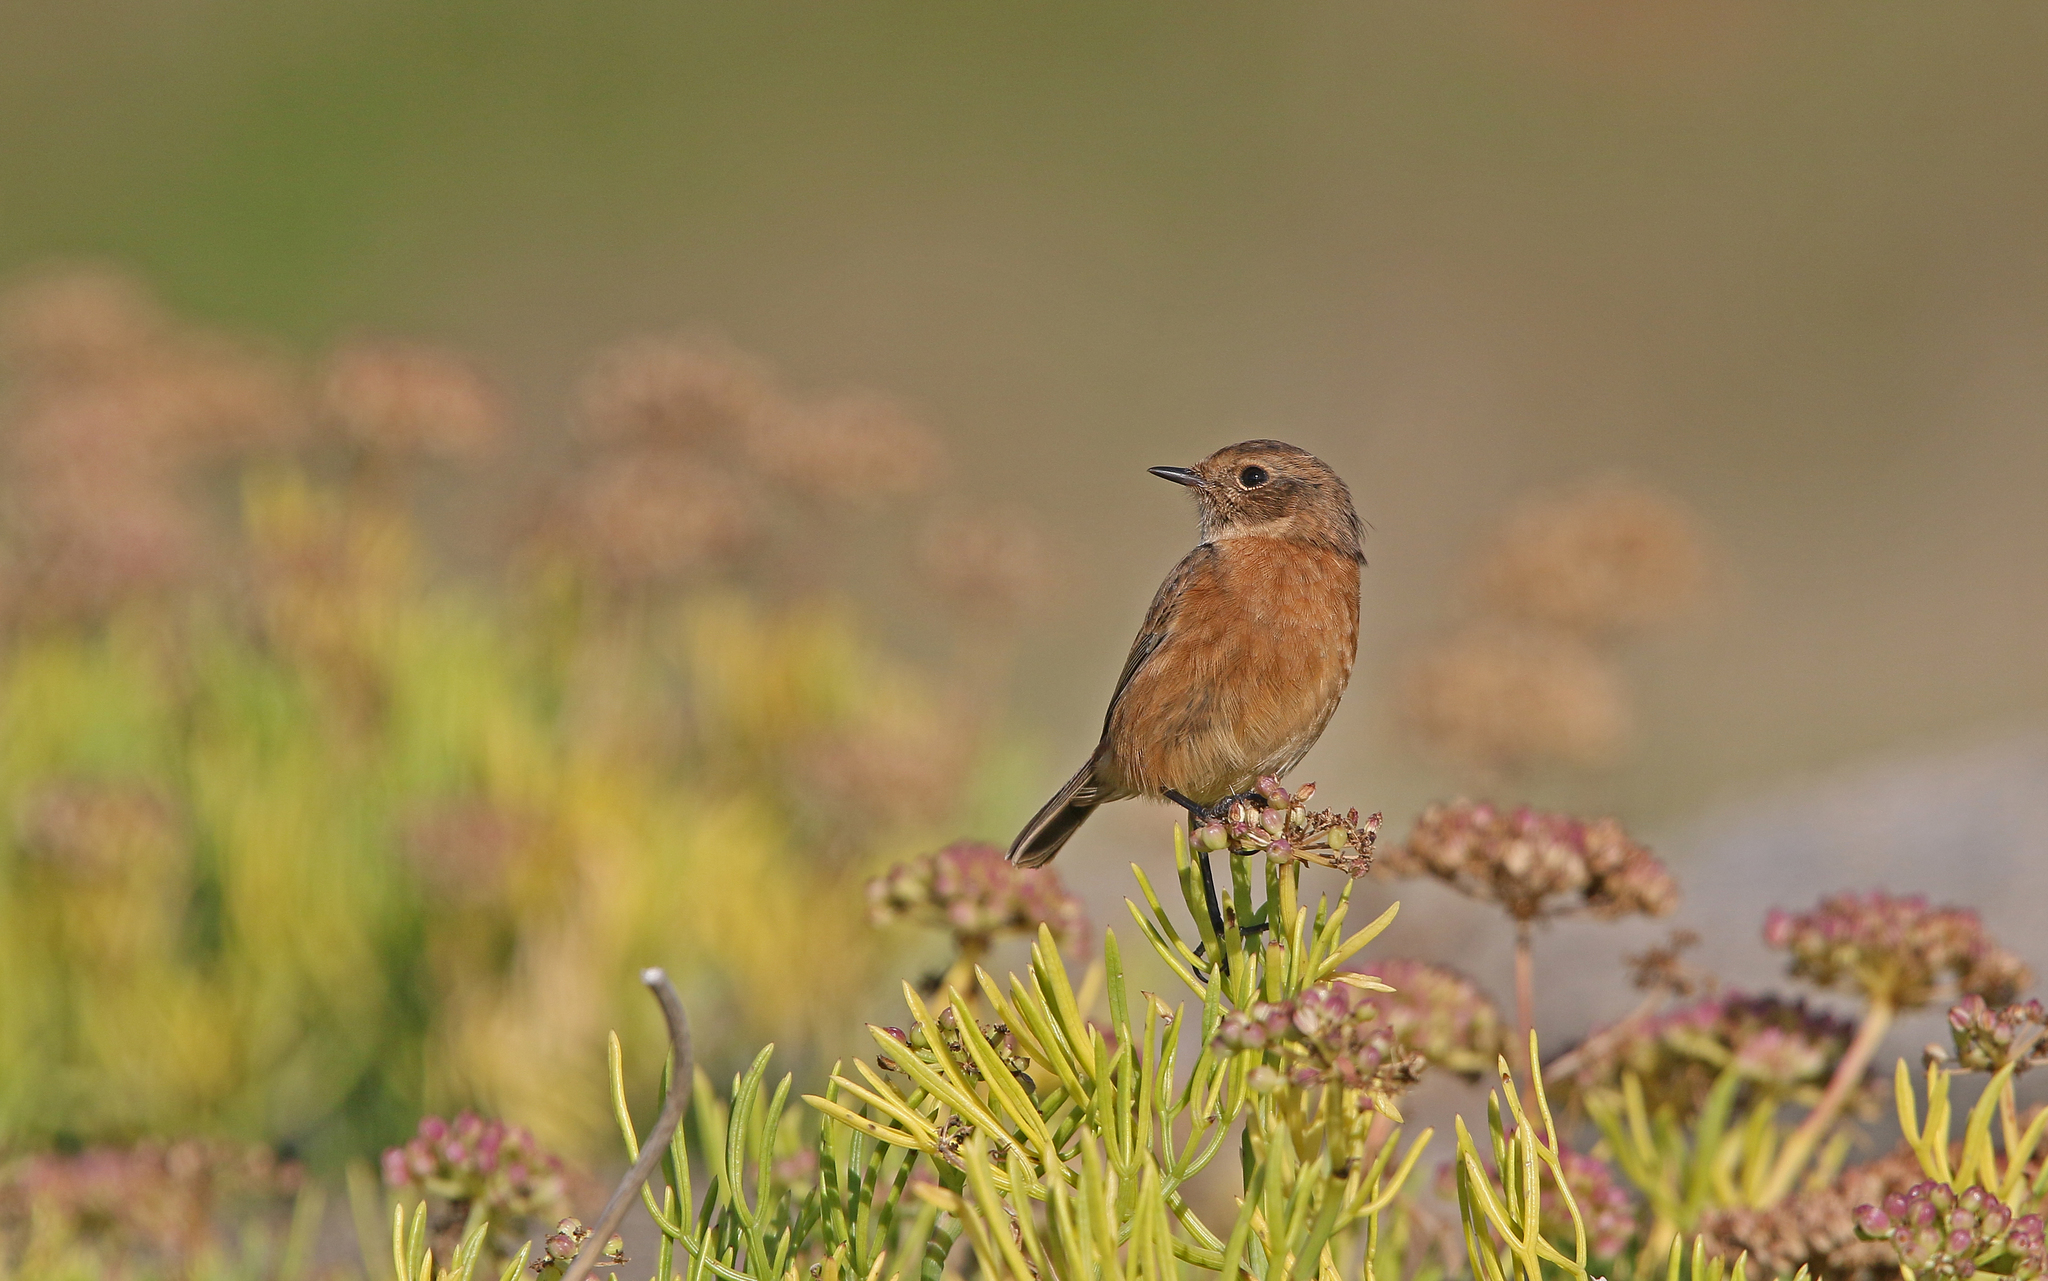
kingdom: Animalia
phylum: Chordata
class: Aves
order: Passeriformes
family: Muscicapidae
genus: Saxicola
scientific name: Saxicola rubicola
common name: European stonechat
